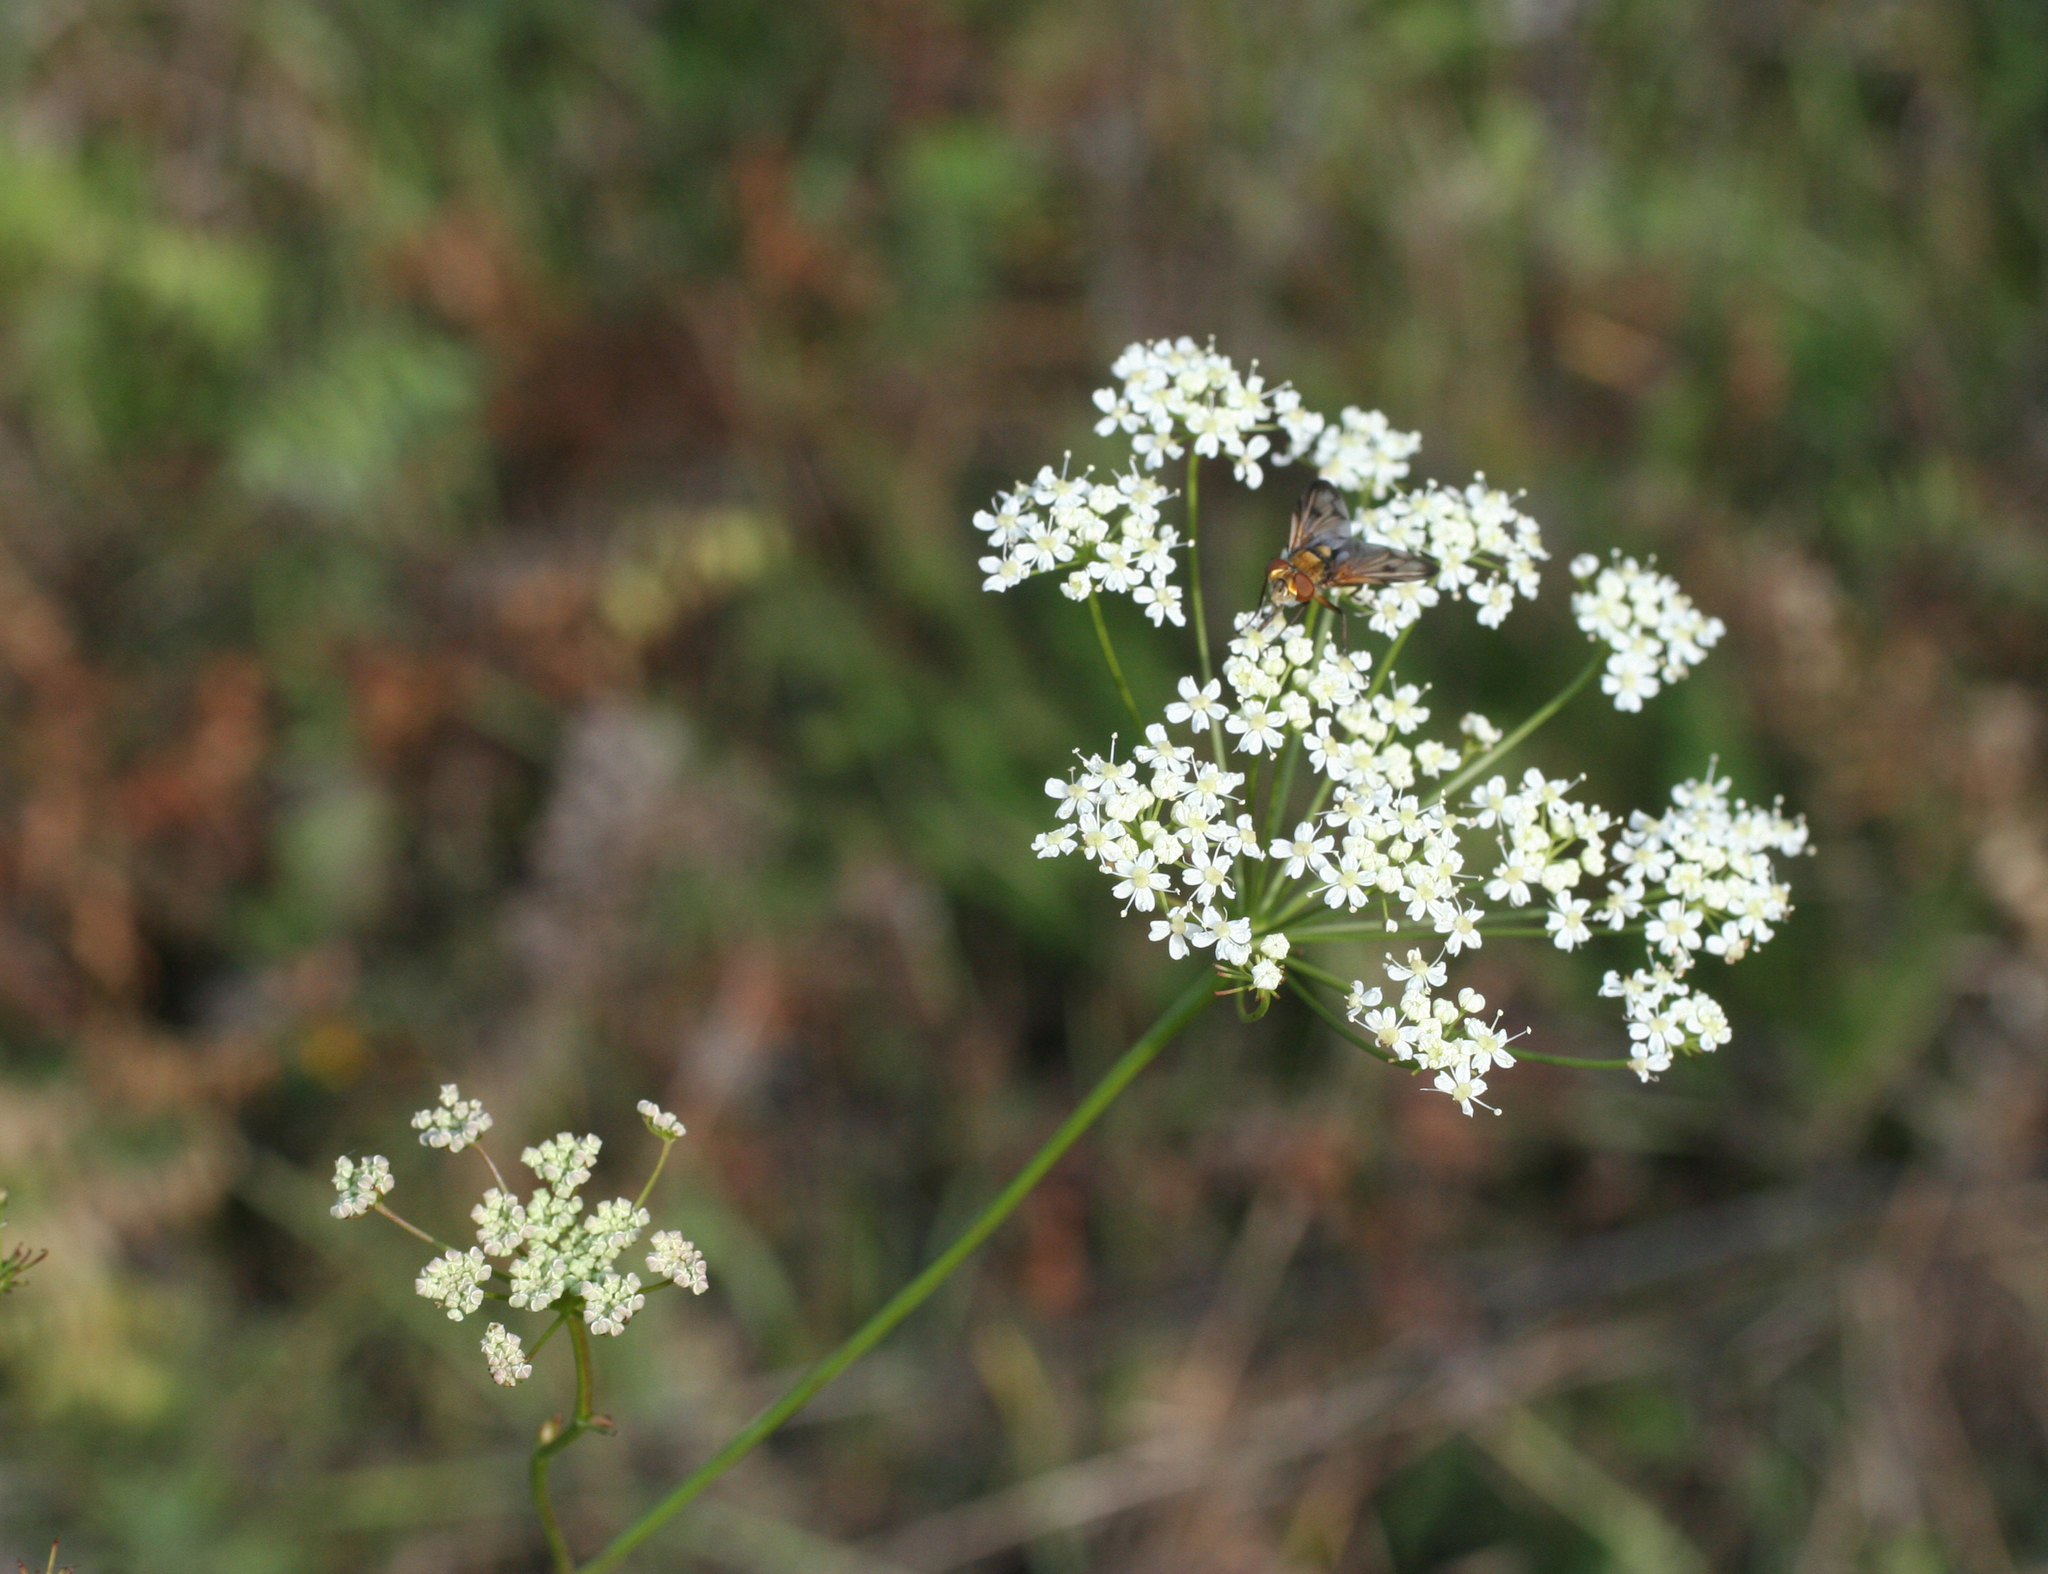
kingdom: Plantae
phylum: Tracheophyta
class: Magnoliopsida
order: Apiales
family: Apiaceae
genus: Pimpinella
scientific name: Pimpinella saxifraga
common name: Burnet-saxifrage
